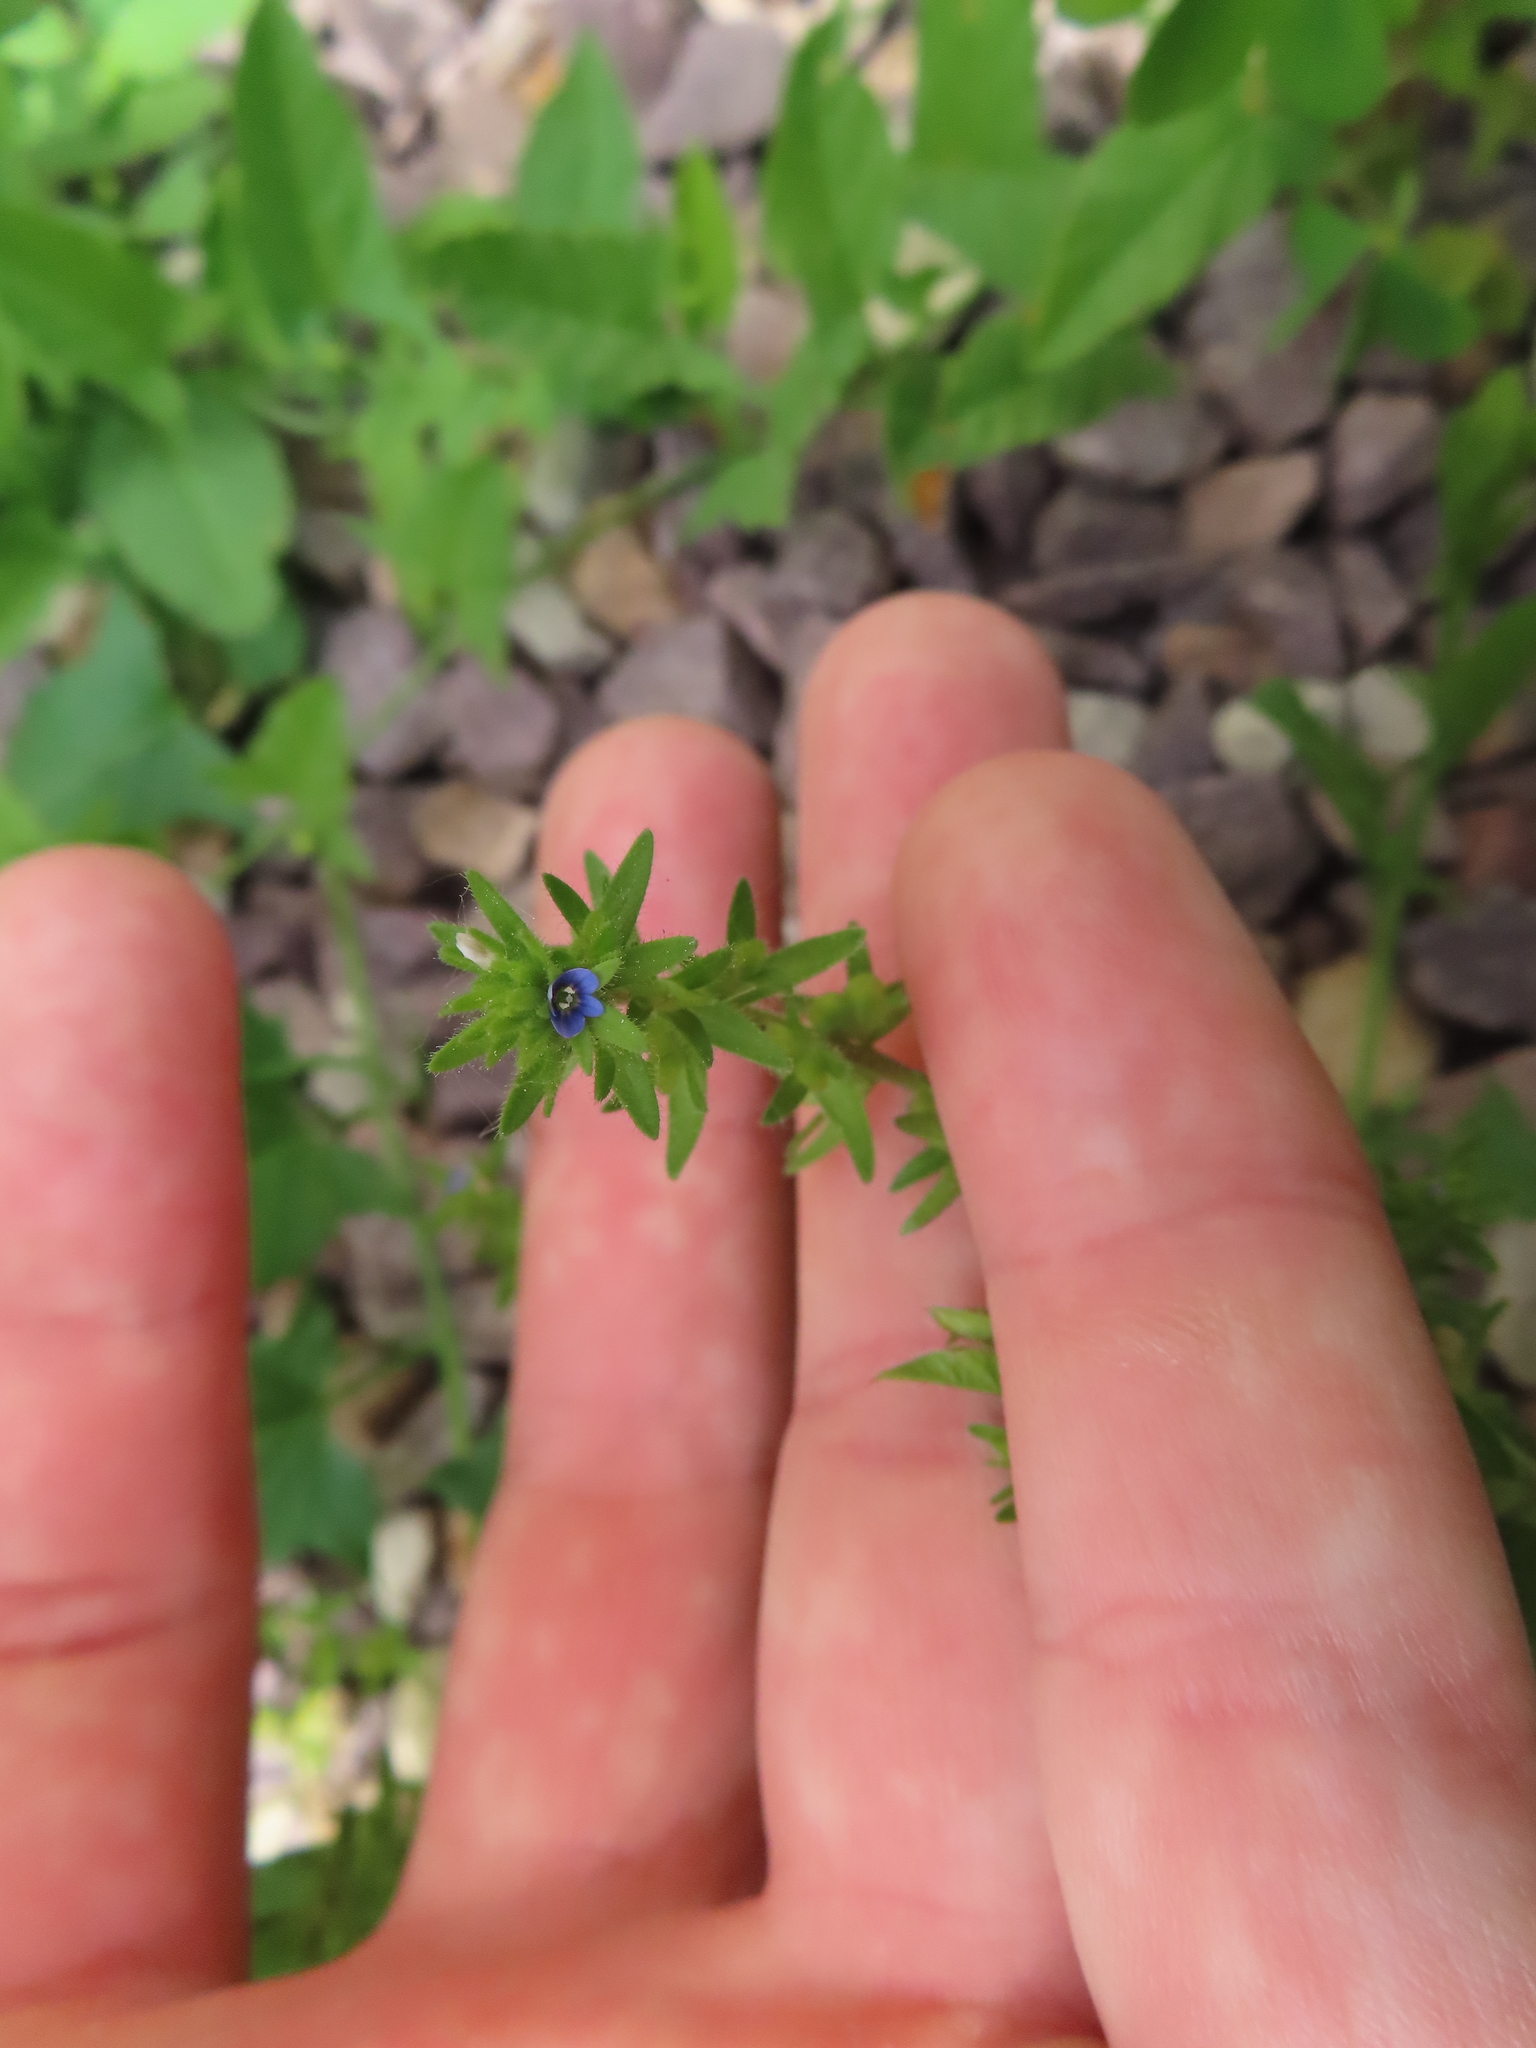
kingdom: Plantae
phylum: Tracheophyta
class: Magnoliopsida
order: Lamiales
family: Plantaginaceae
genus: Veronica
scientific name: Veronica arvensis
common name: Corn speedwell
